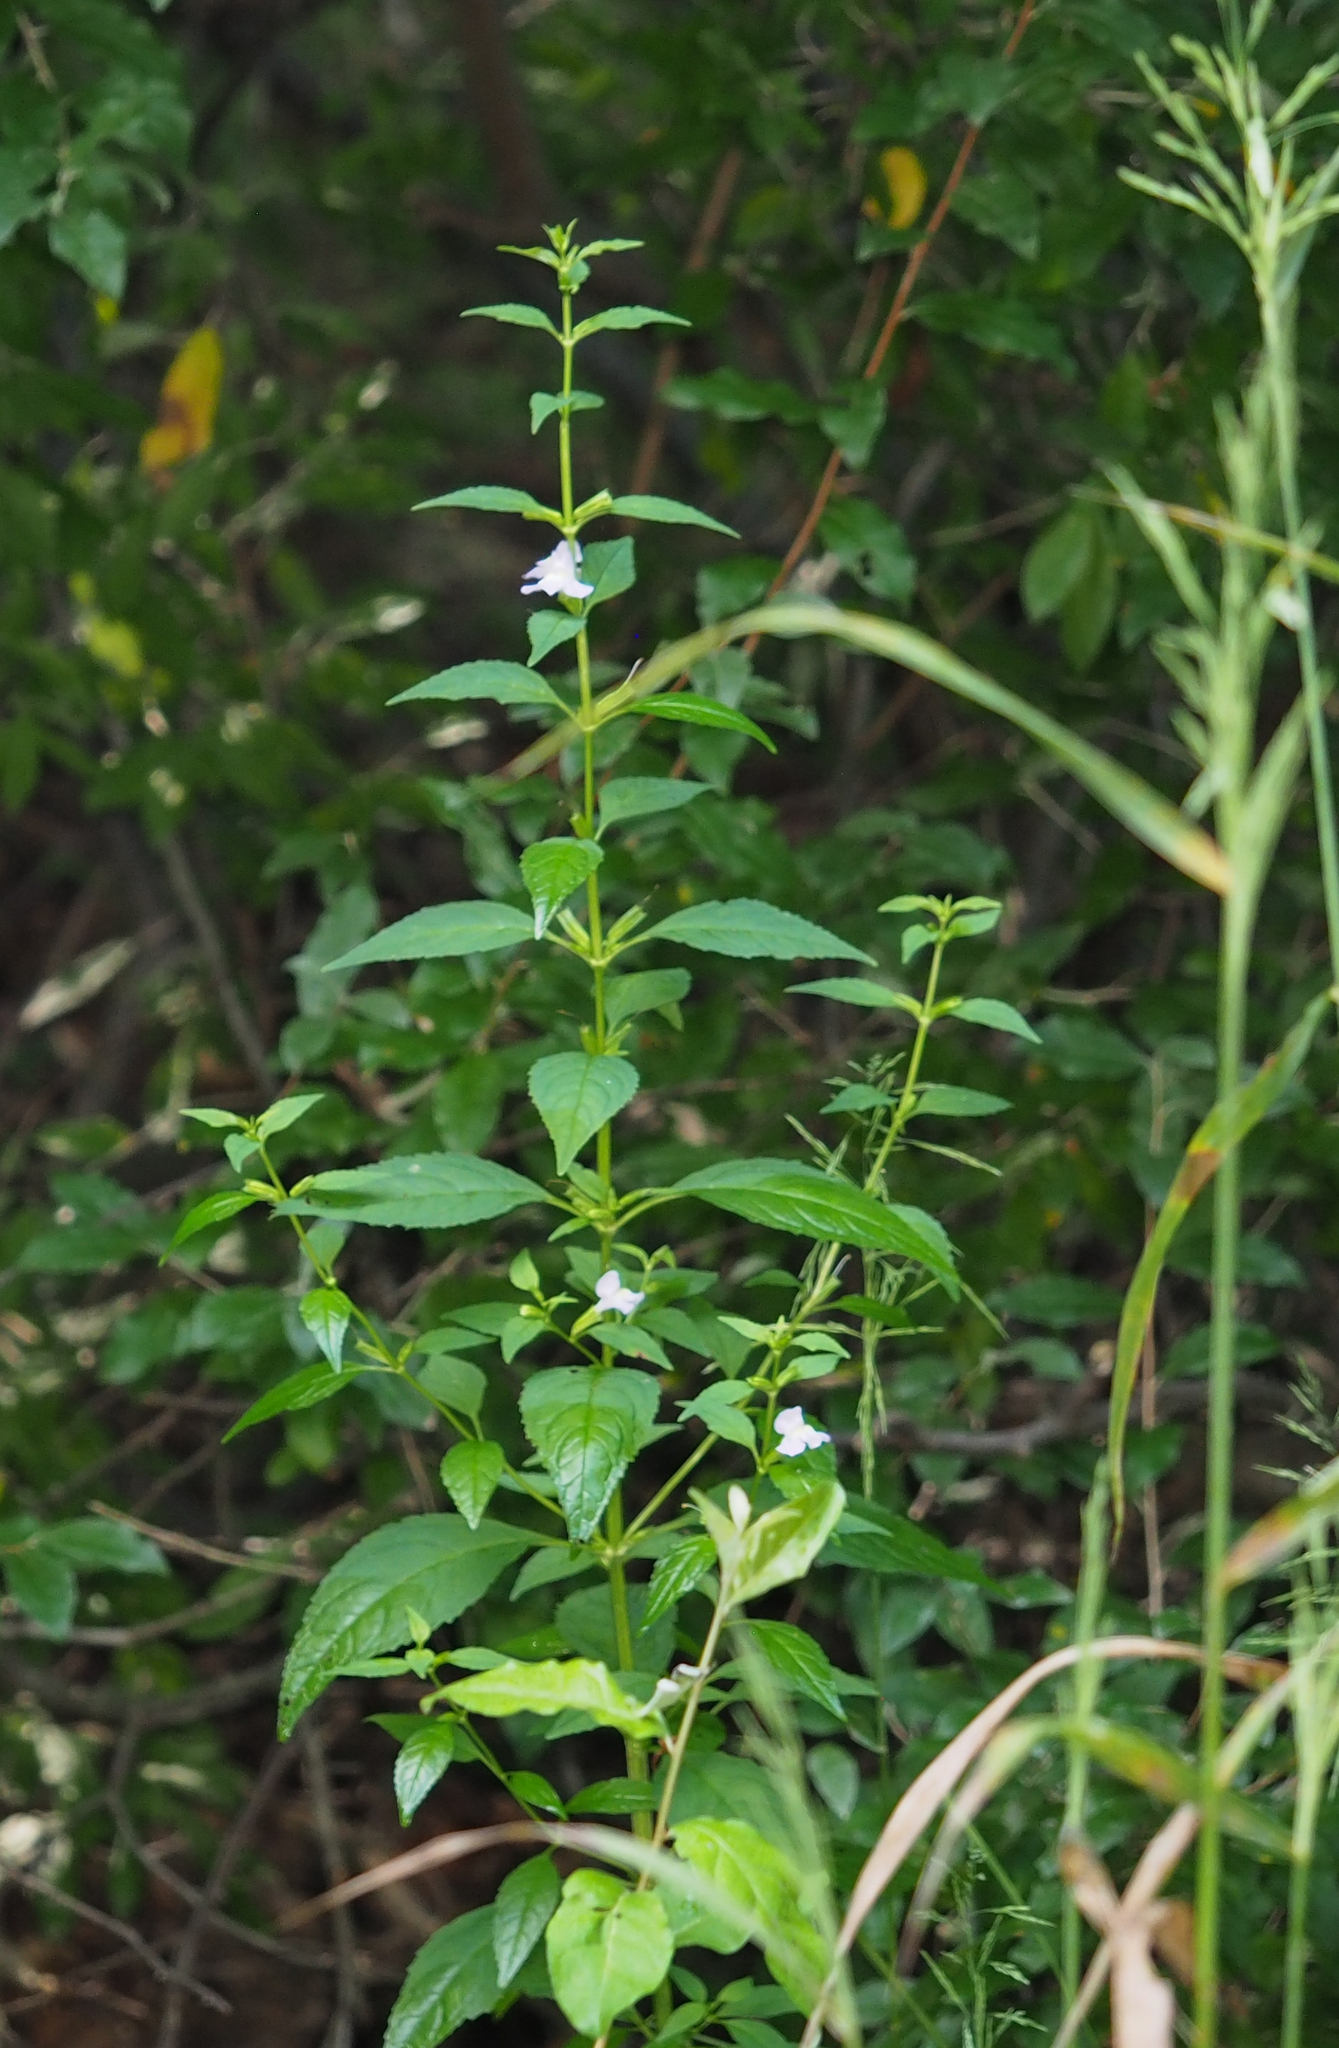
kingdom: Plantae
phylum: Tracheophyta
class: Magnoliopsida
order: Lamiales
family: Phrymaceae
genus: Mimulus
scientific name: Mimulus alatus
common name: Sharp-wing monkey-flower
